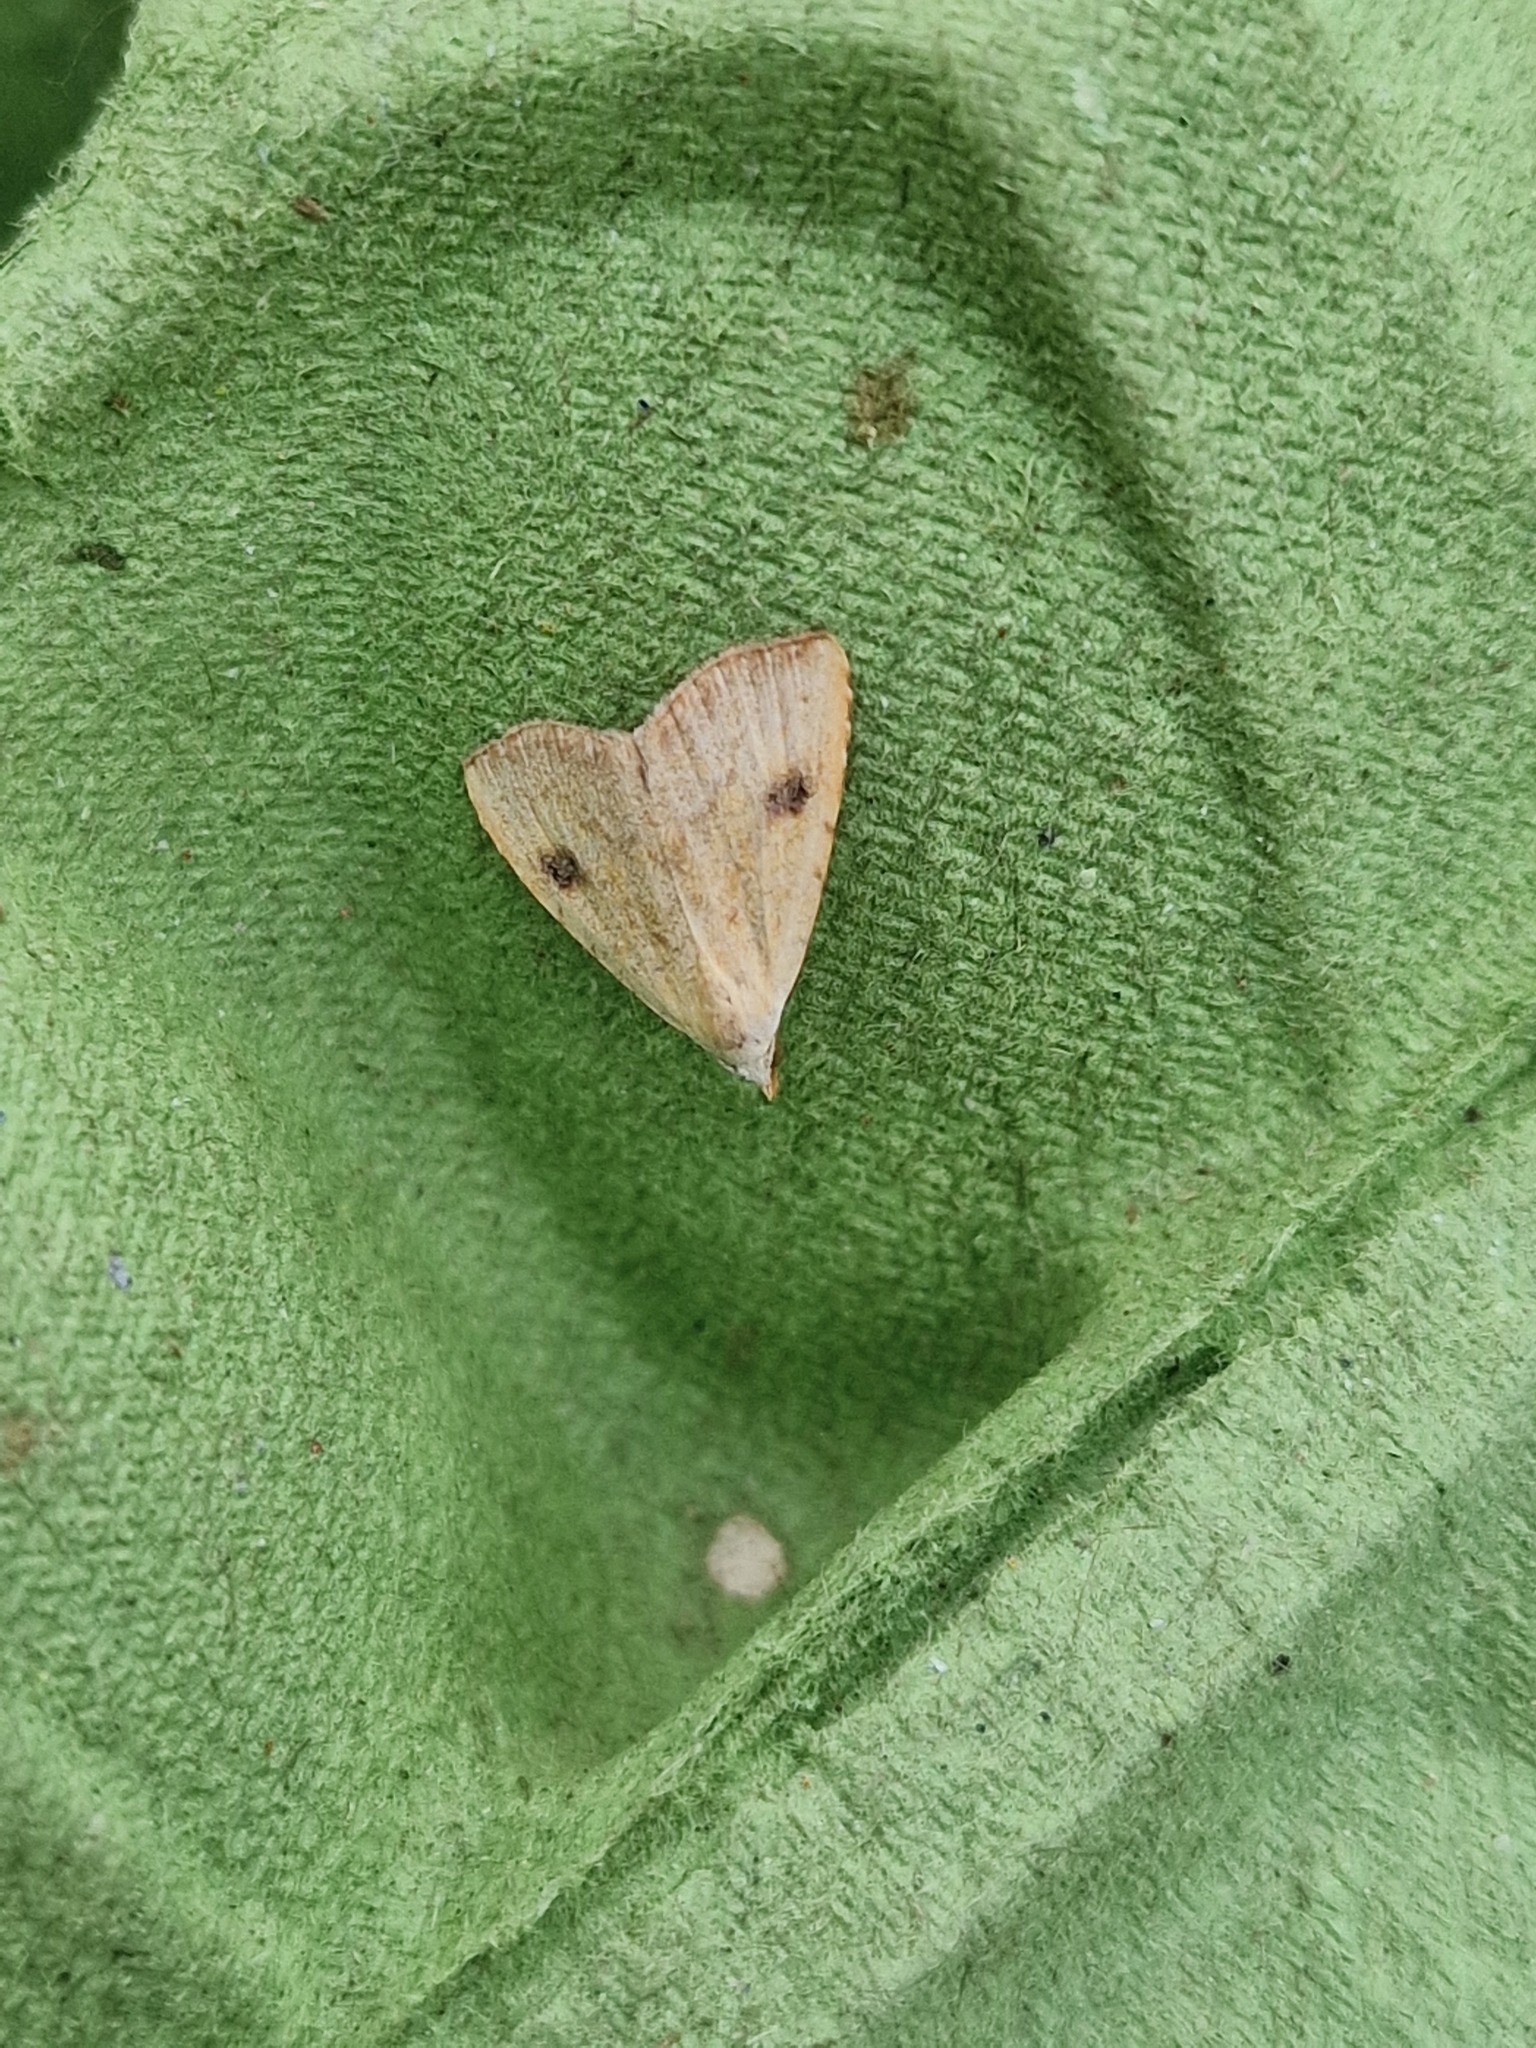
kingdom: Animalia
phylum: Arthropoda
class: Insecta
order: Lepidoptera
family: Erebidae
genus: Rivula
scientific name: Rivula sericealis
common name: Straw dot
